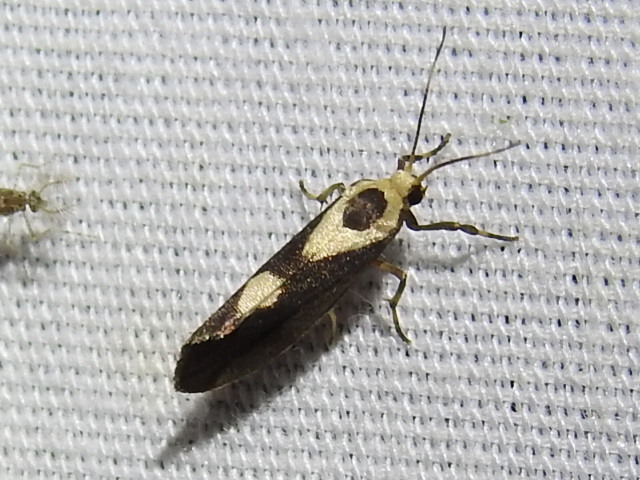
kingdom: Animalia
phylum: Arthropoda
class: Insecta
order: Lepidoptera
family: Erebidae
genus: Cisthene
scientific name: Cisthene subrufa
